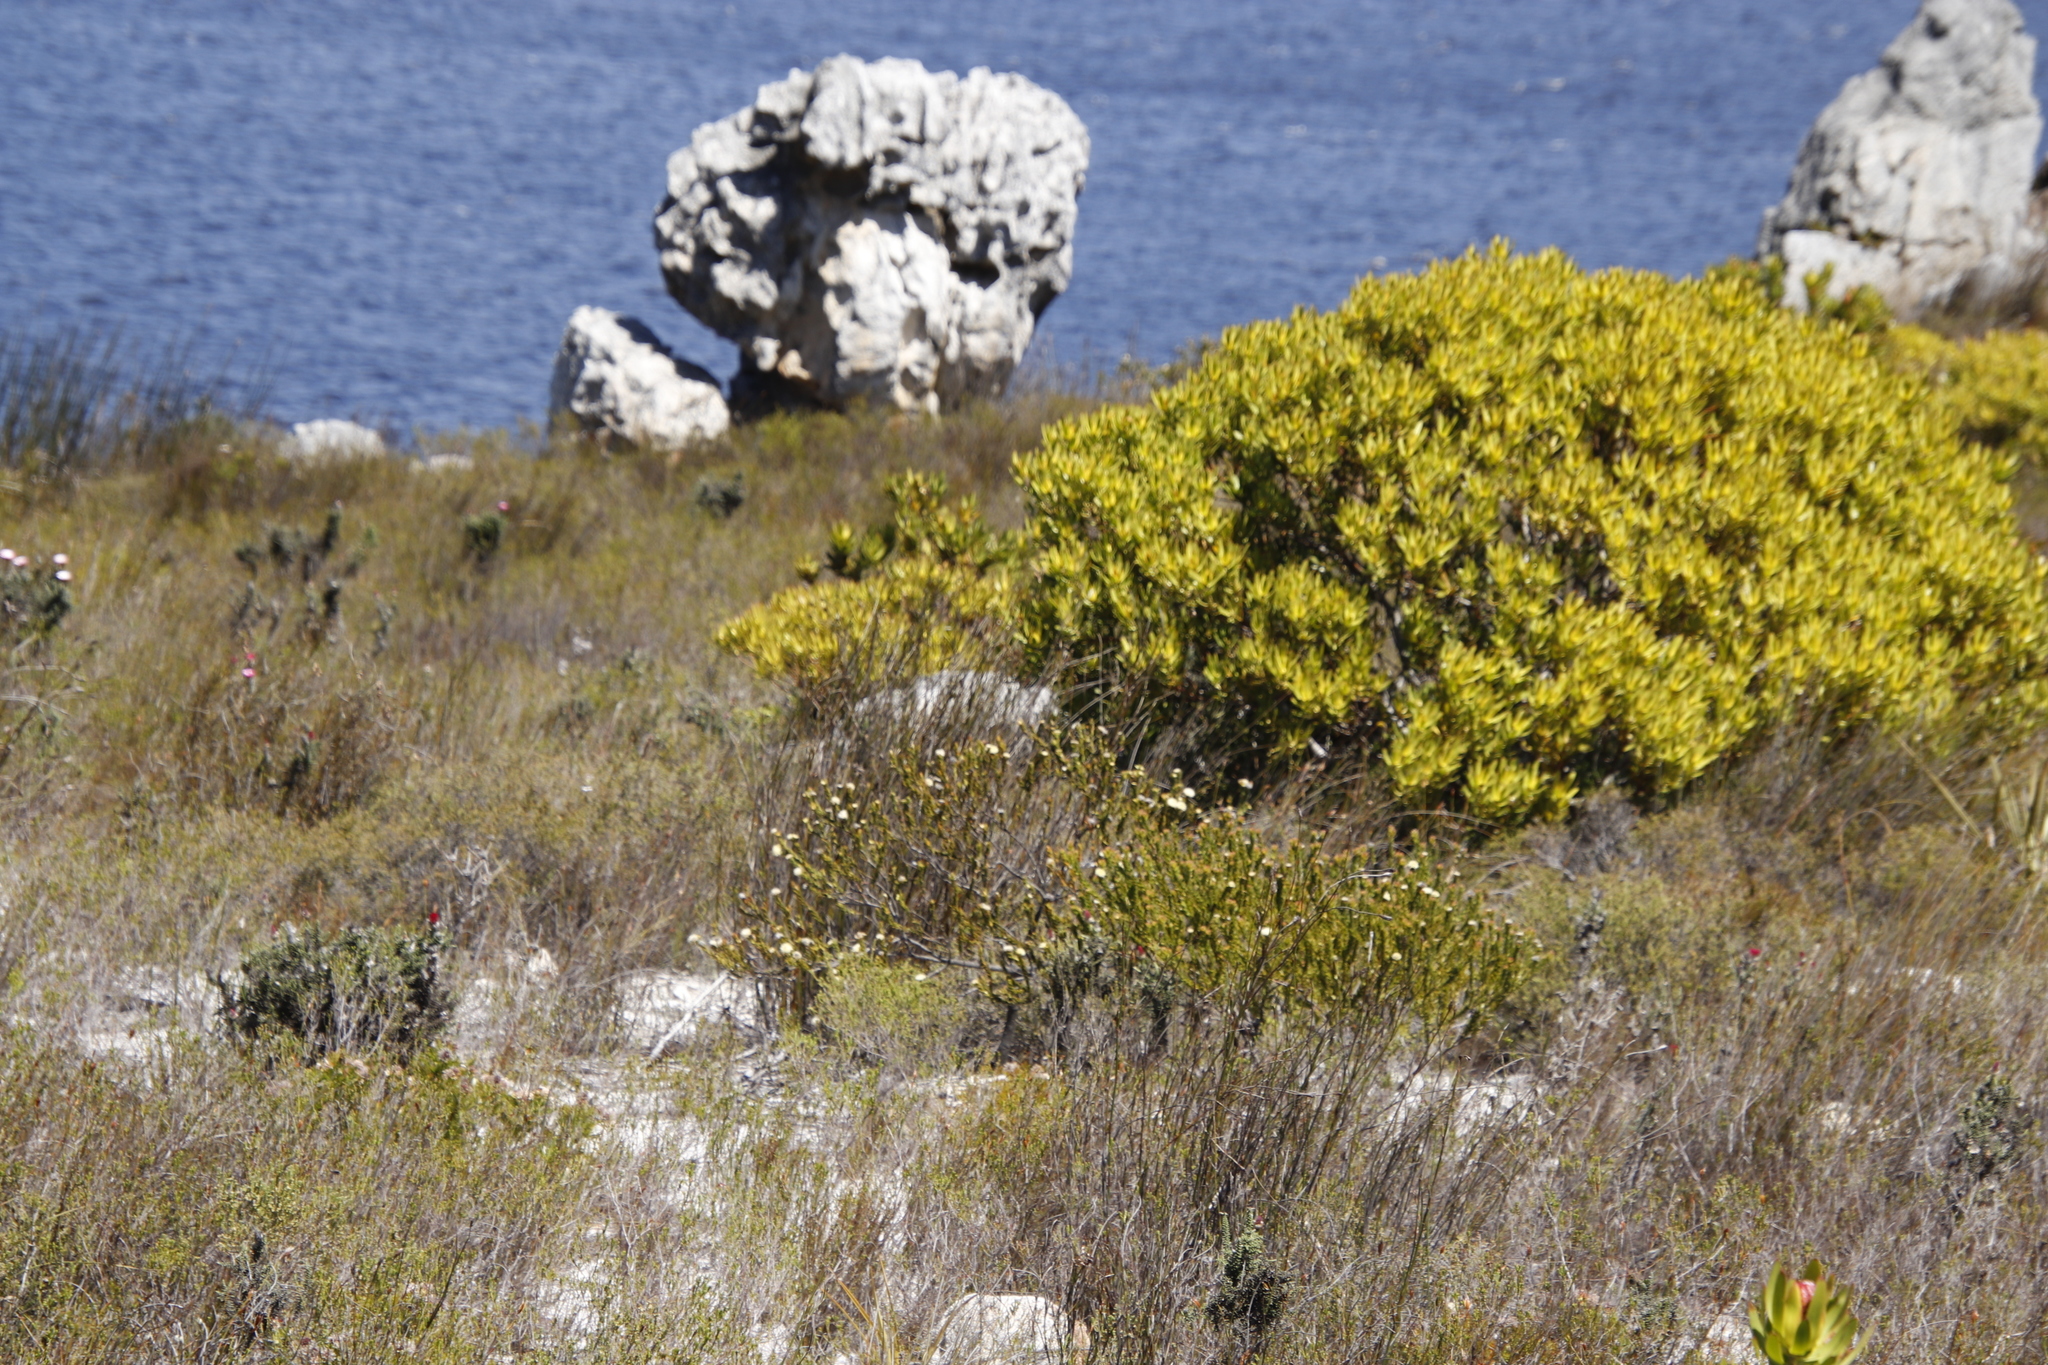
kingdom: Plantae
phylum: Tracheophyta
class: Magnoliopsida
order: Proteales
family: Proteaceae
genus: Diastella
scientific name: Diastella thymelaeoides
